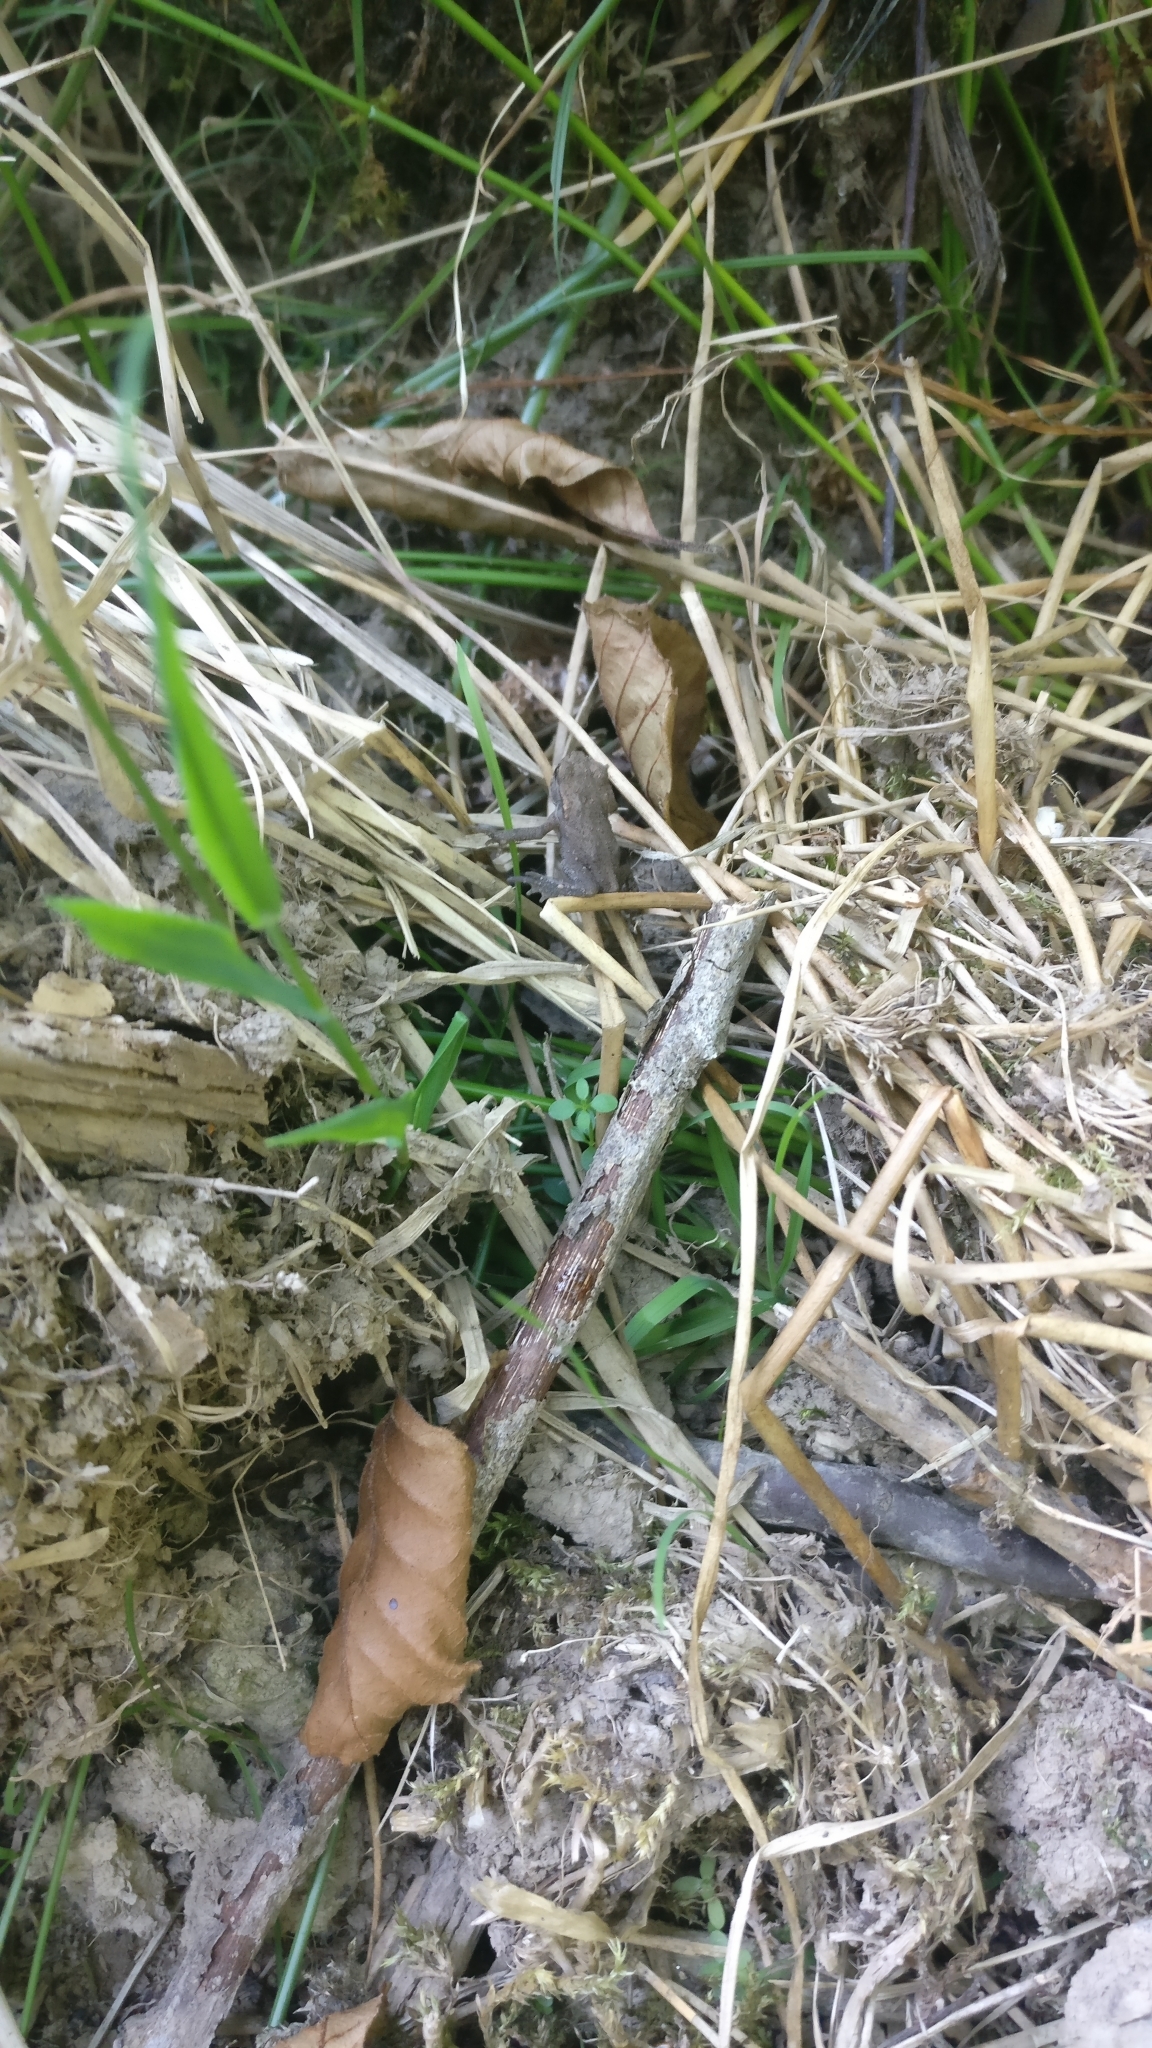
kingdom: Animalia
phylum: Chordata
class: Amphibia
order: Anura
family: Bufonidae
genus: Bufo
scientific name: Bufo bufo
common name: Common toad
